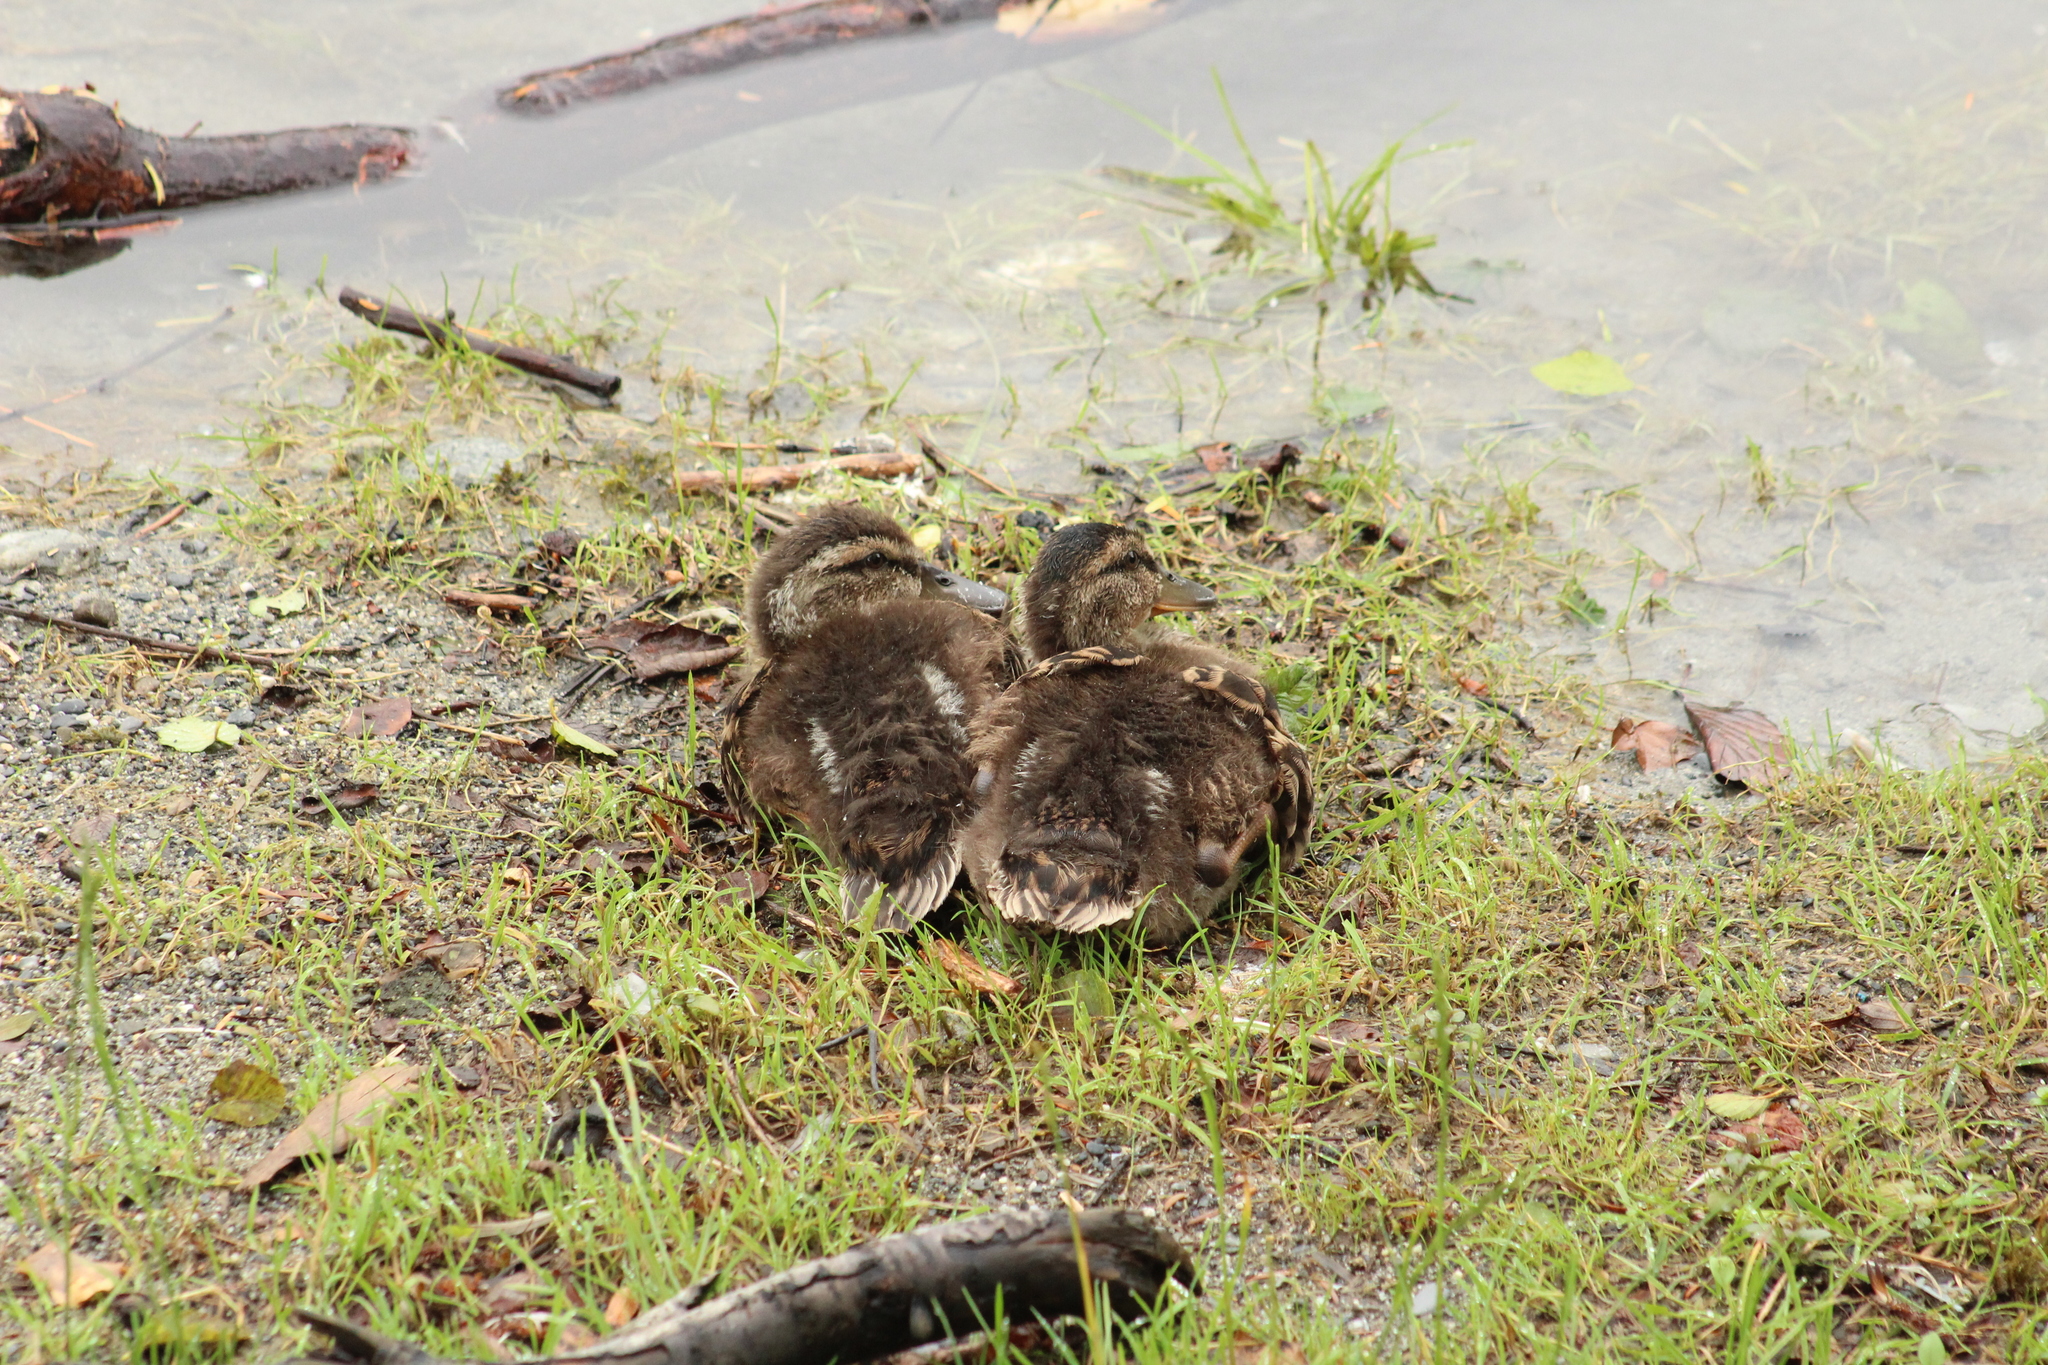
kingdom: Animalia
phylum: Chordata
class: Aves
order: Anseriformes
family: Anatidae
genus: Anas
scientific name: Anas platyrhynchos
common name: Mallard
